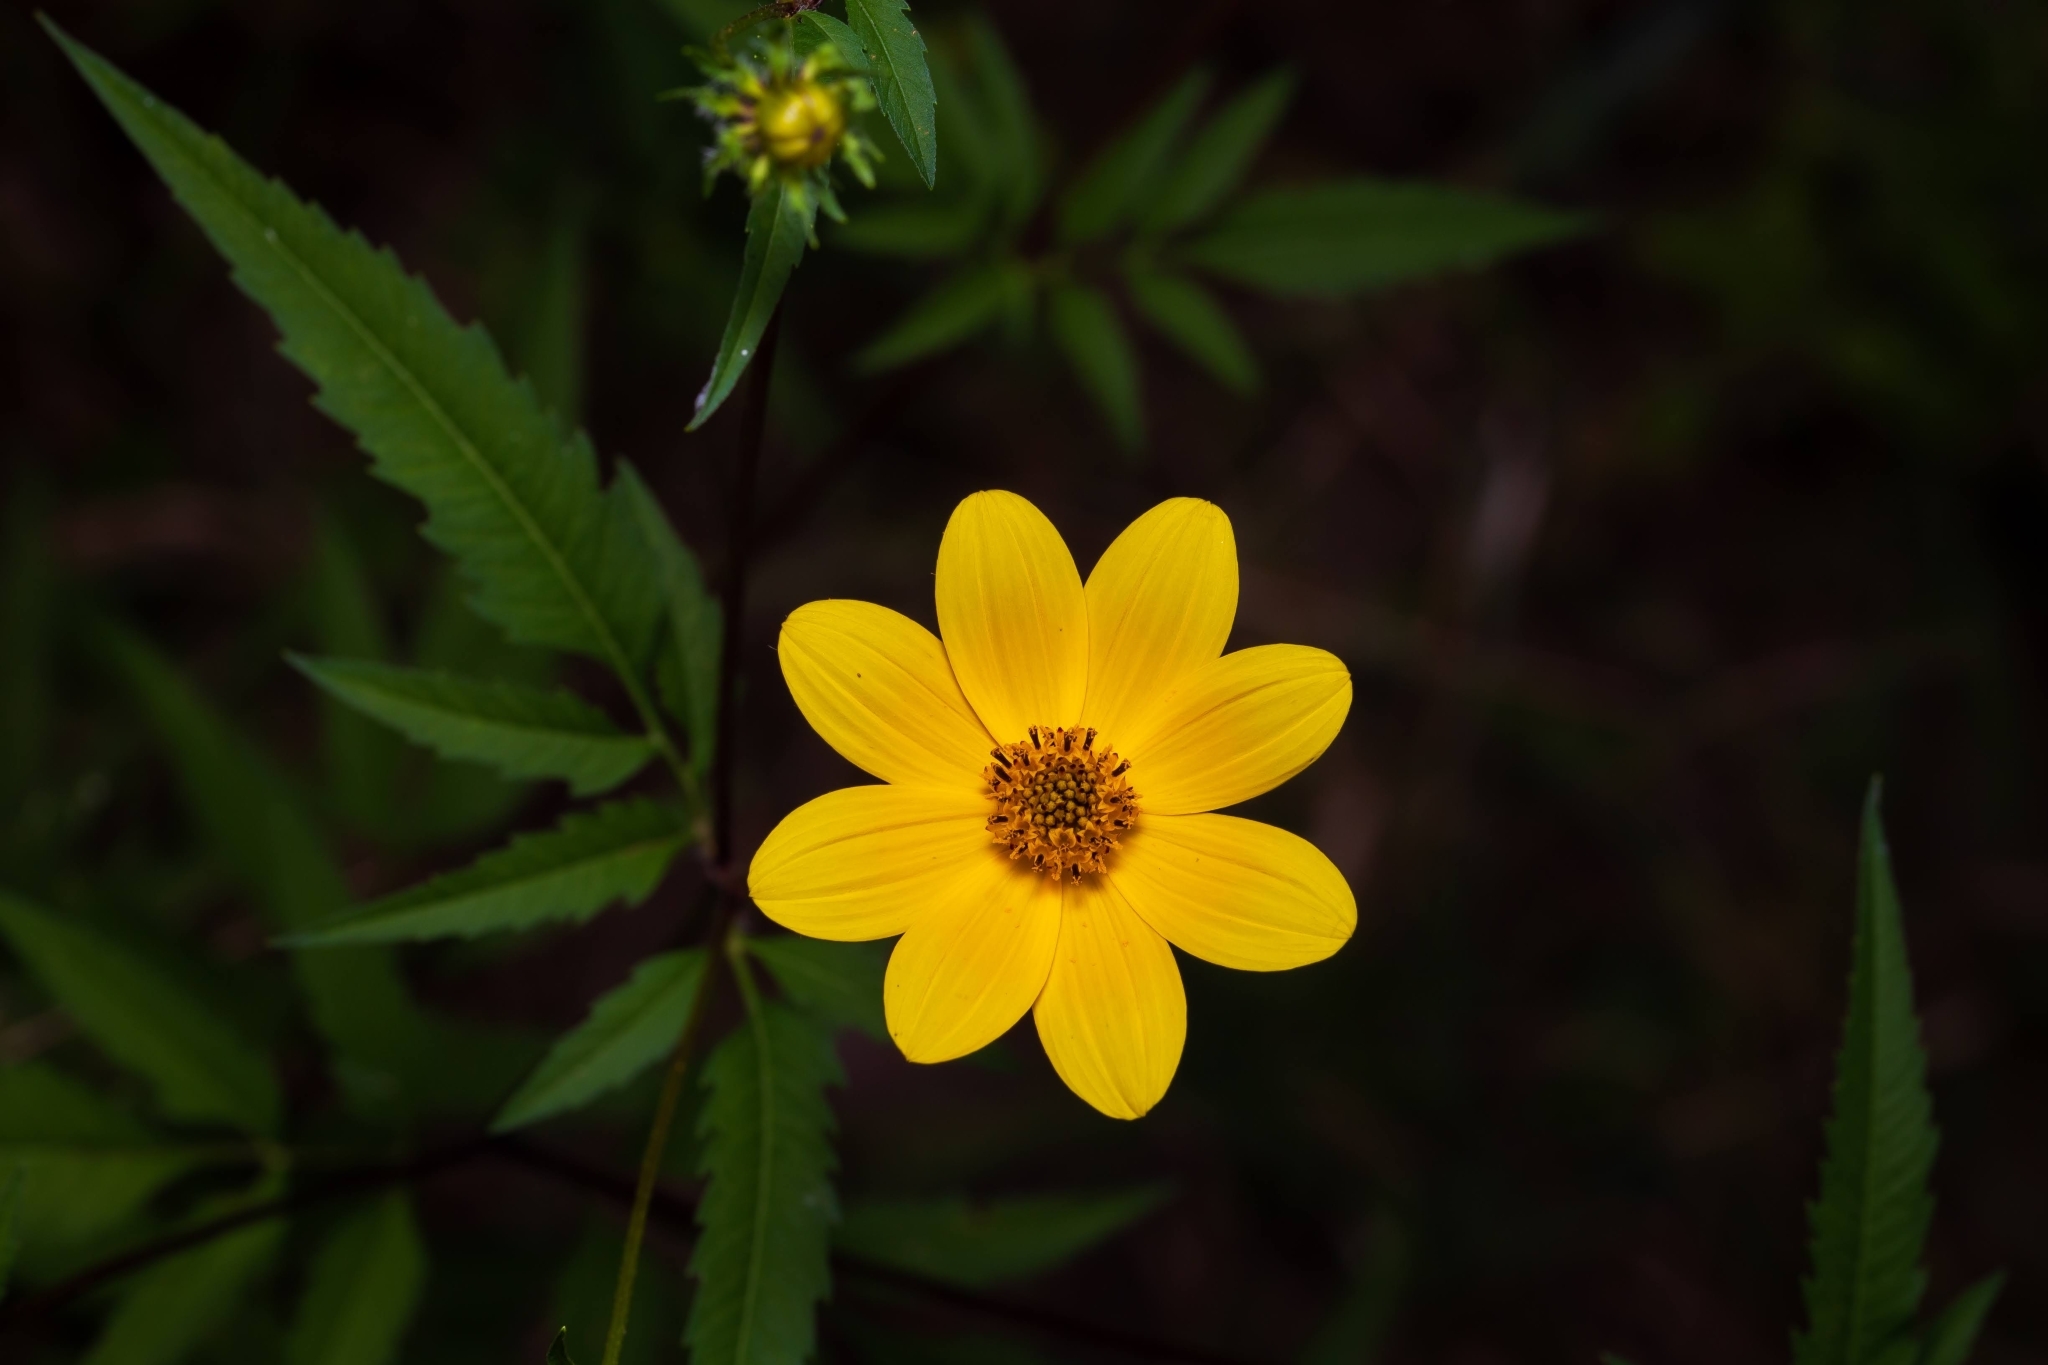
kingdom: Plantae
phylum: Tracheophyta
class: Magnoliopsida
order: Asterales
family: Asteraceae
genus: Bidens
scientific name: Bidens aristosa
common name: Western tickseed
